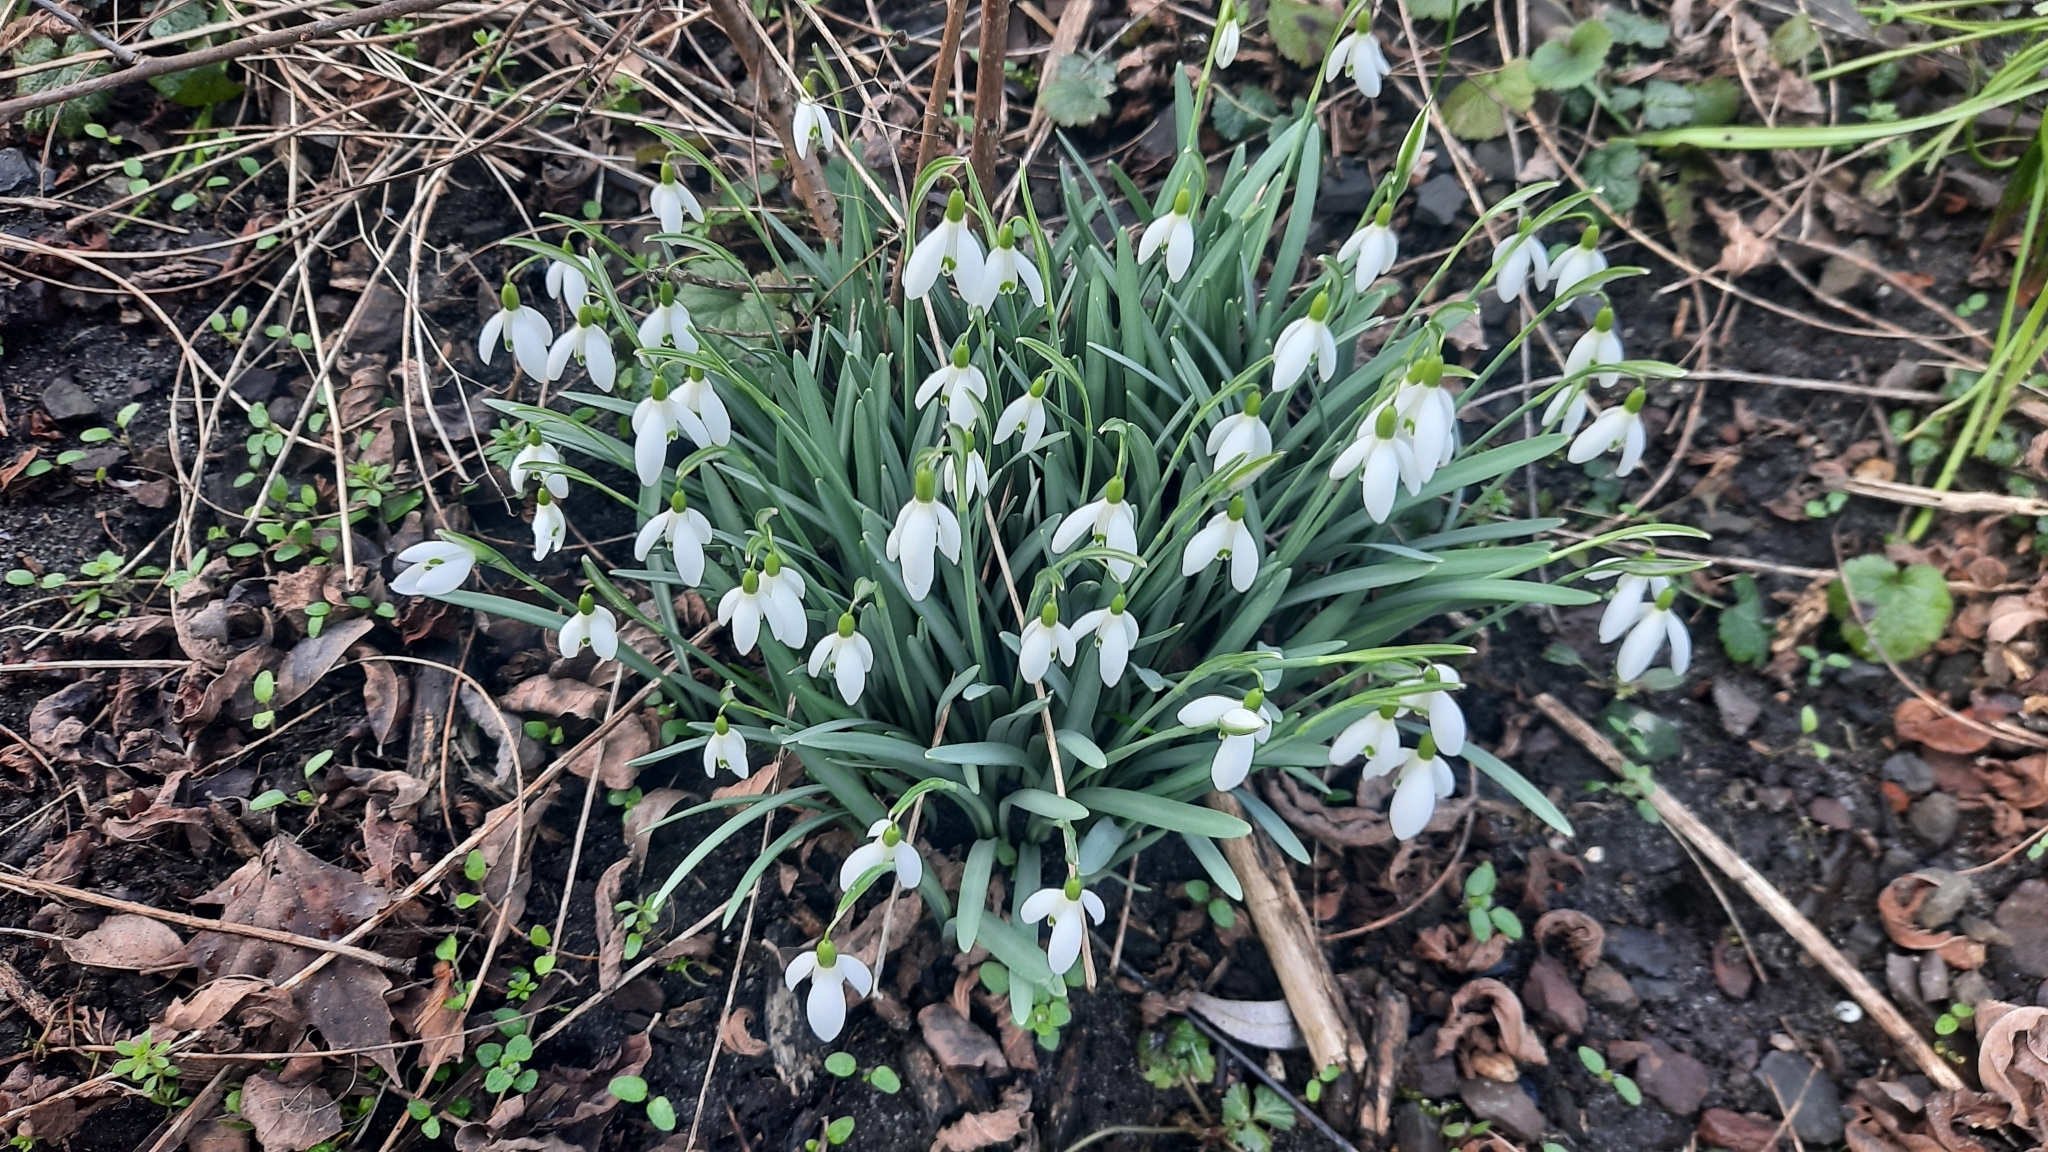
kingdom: Plantae
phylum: Tracheophyta
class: Liliopsida
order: Asparagales
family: Amaryllidaceae
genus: Galanthus
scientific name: Galanthus nivalis
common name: Snowdrop
